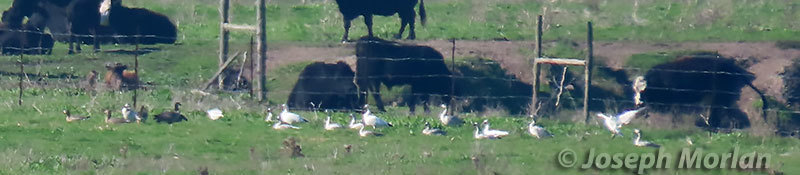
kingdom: Animalia
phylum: Chordata
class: Aves
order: Anseriformes
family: Anatidae
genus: Anser
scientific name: Anser caerulescens
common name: Snow goose
